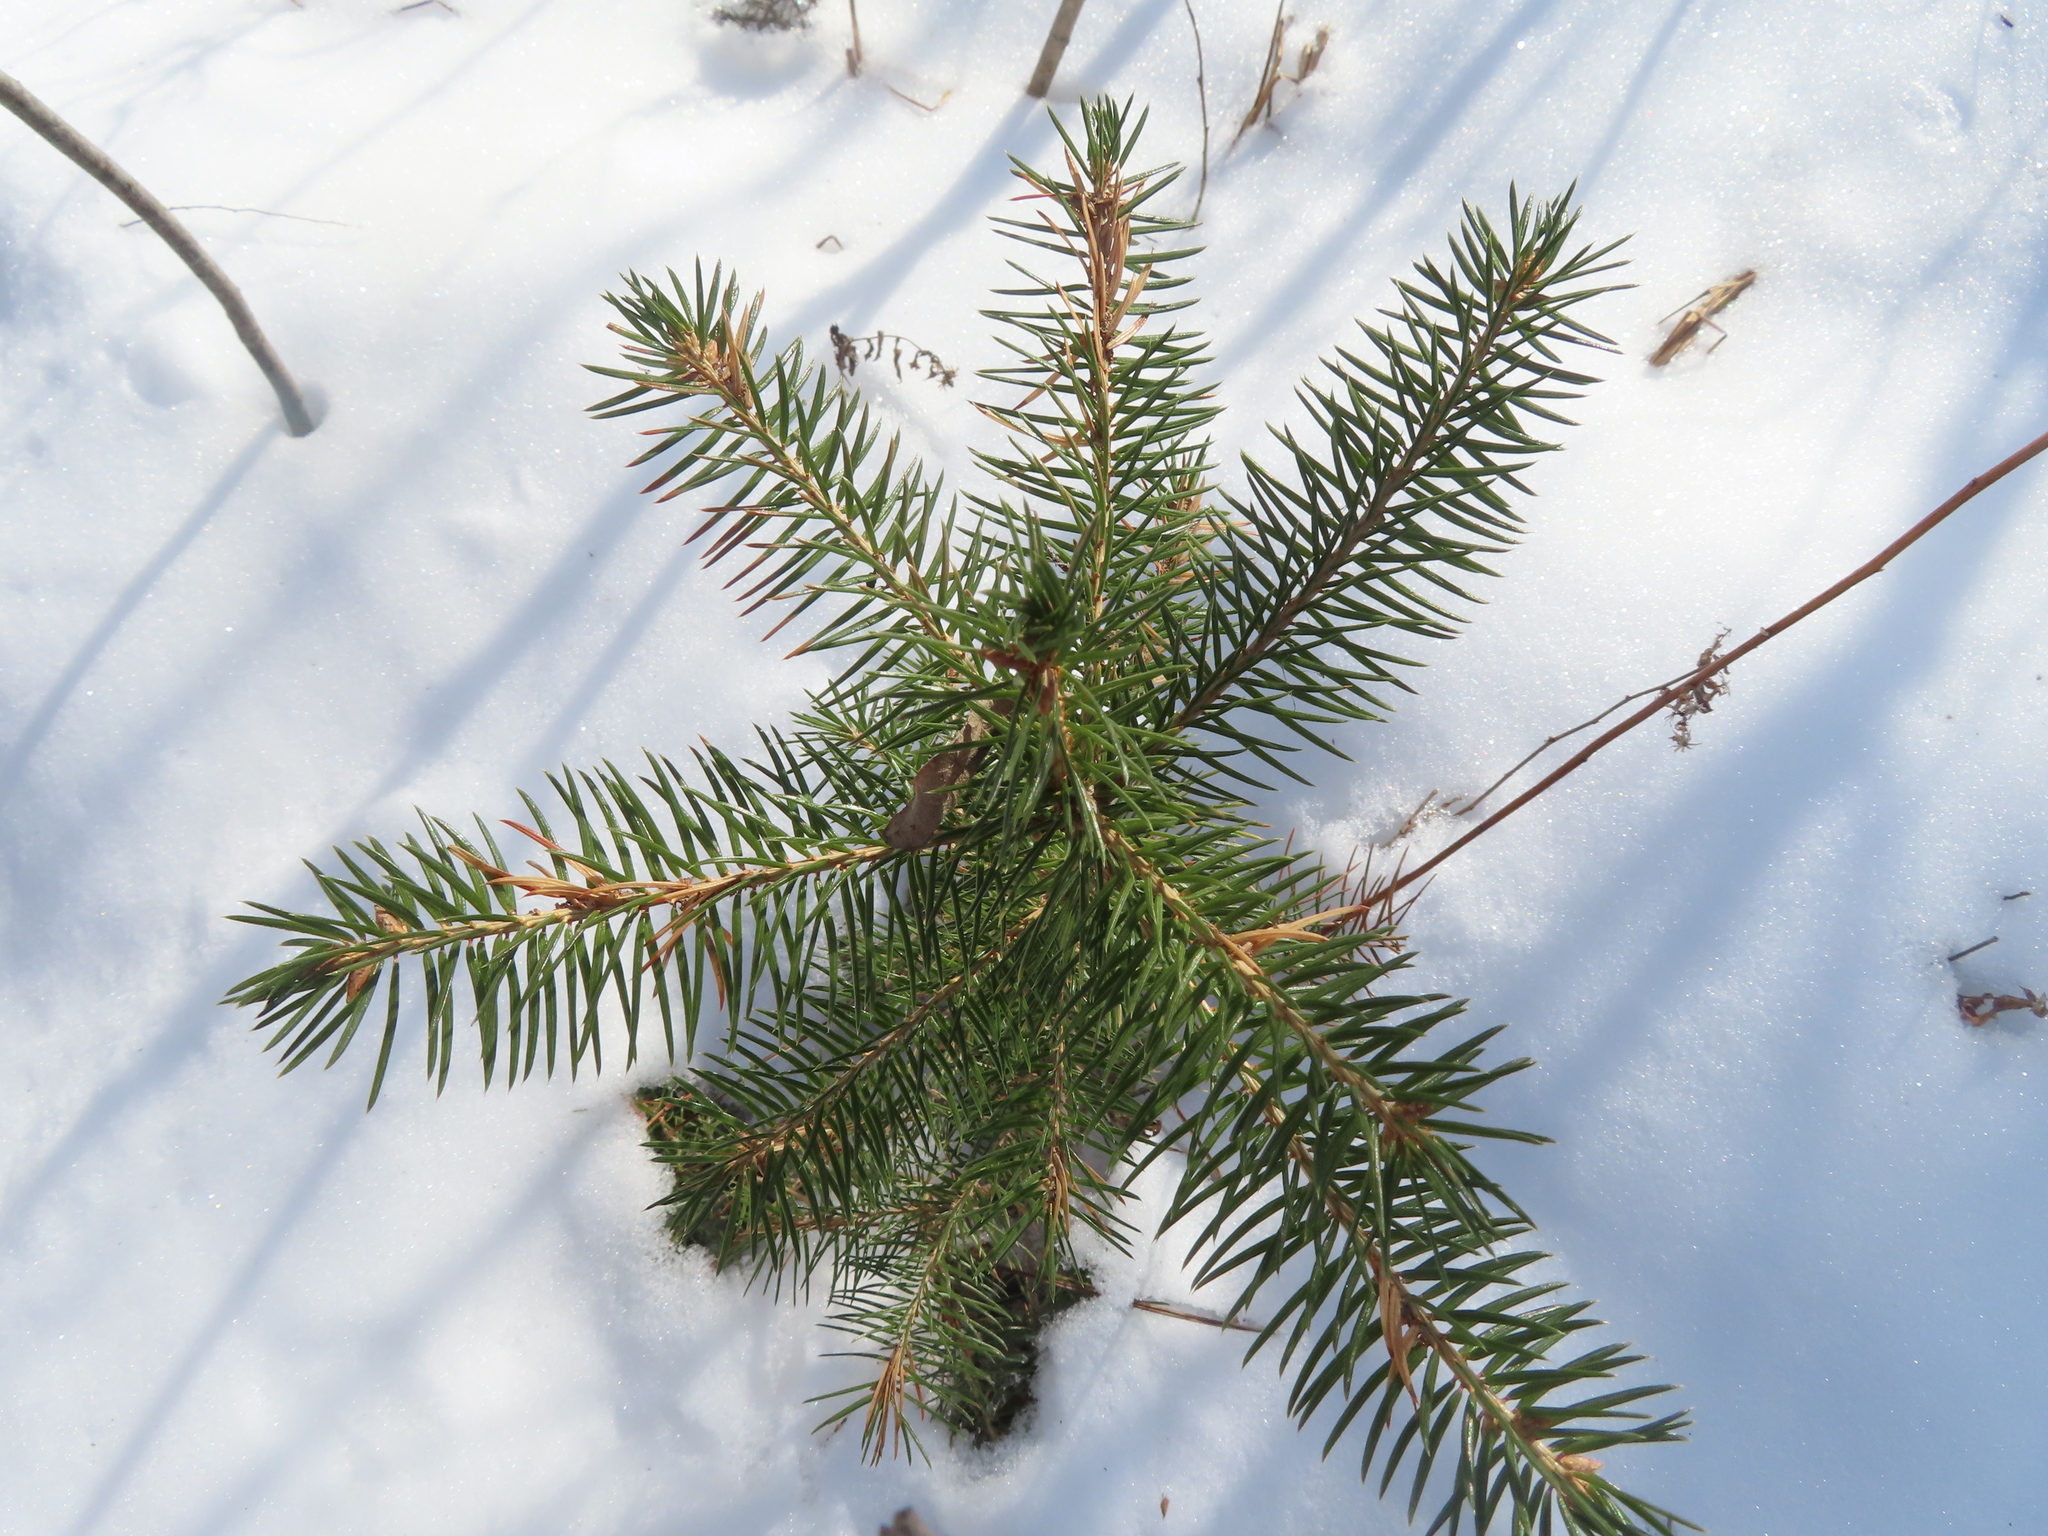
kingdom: Plantae
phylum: Tracheophyta
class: Pinopsida
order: Pinales
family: Pinaceae
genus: Picea
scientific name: Picea abies
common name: Norway spruce
